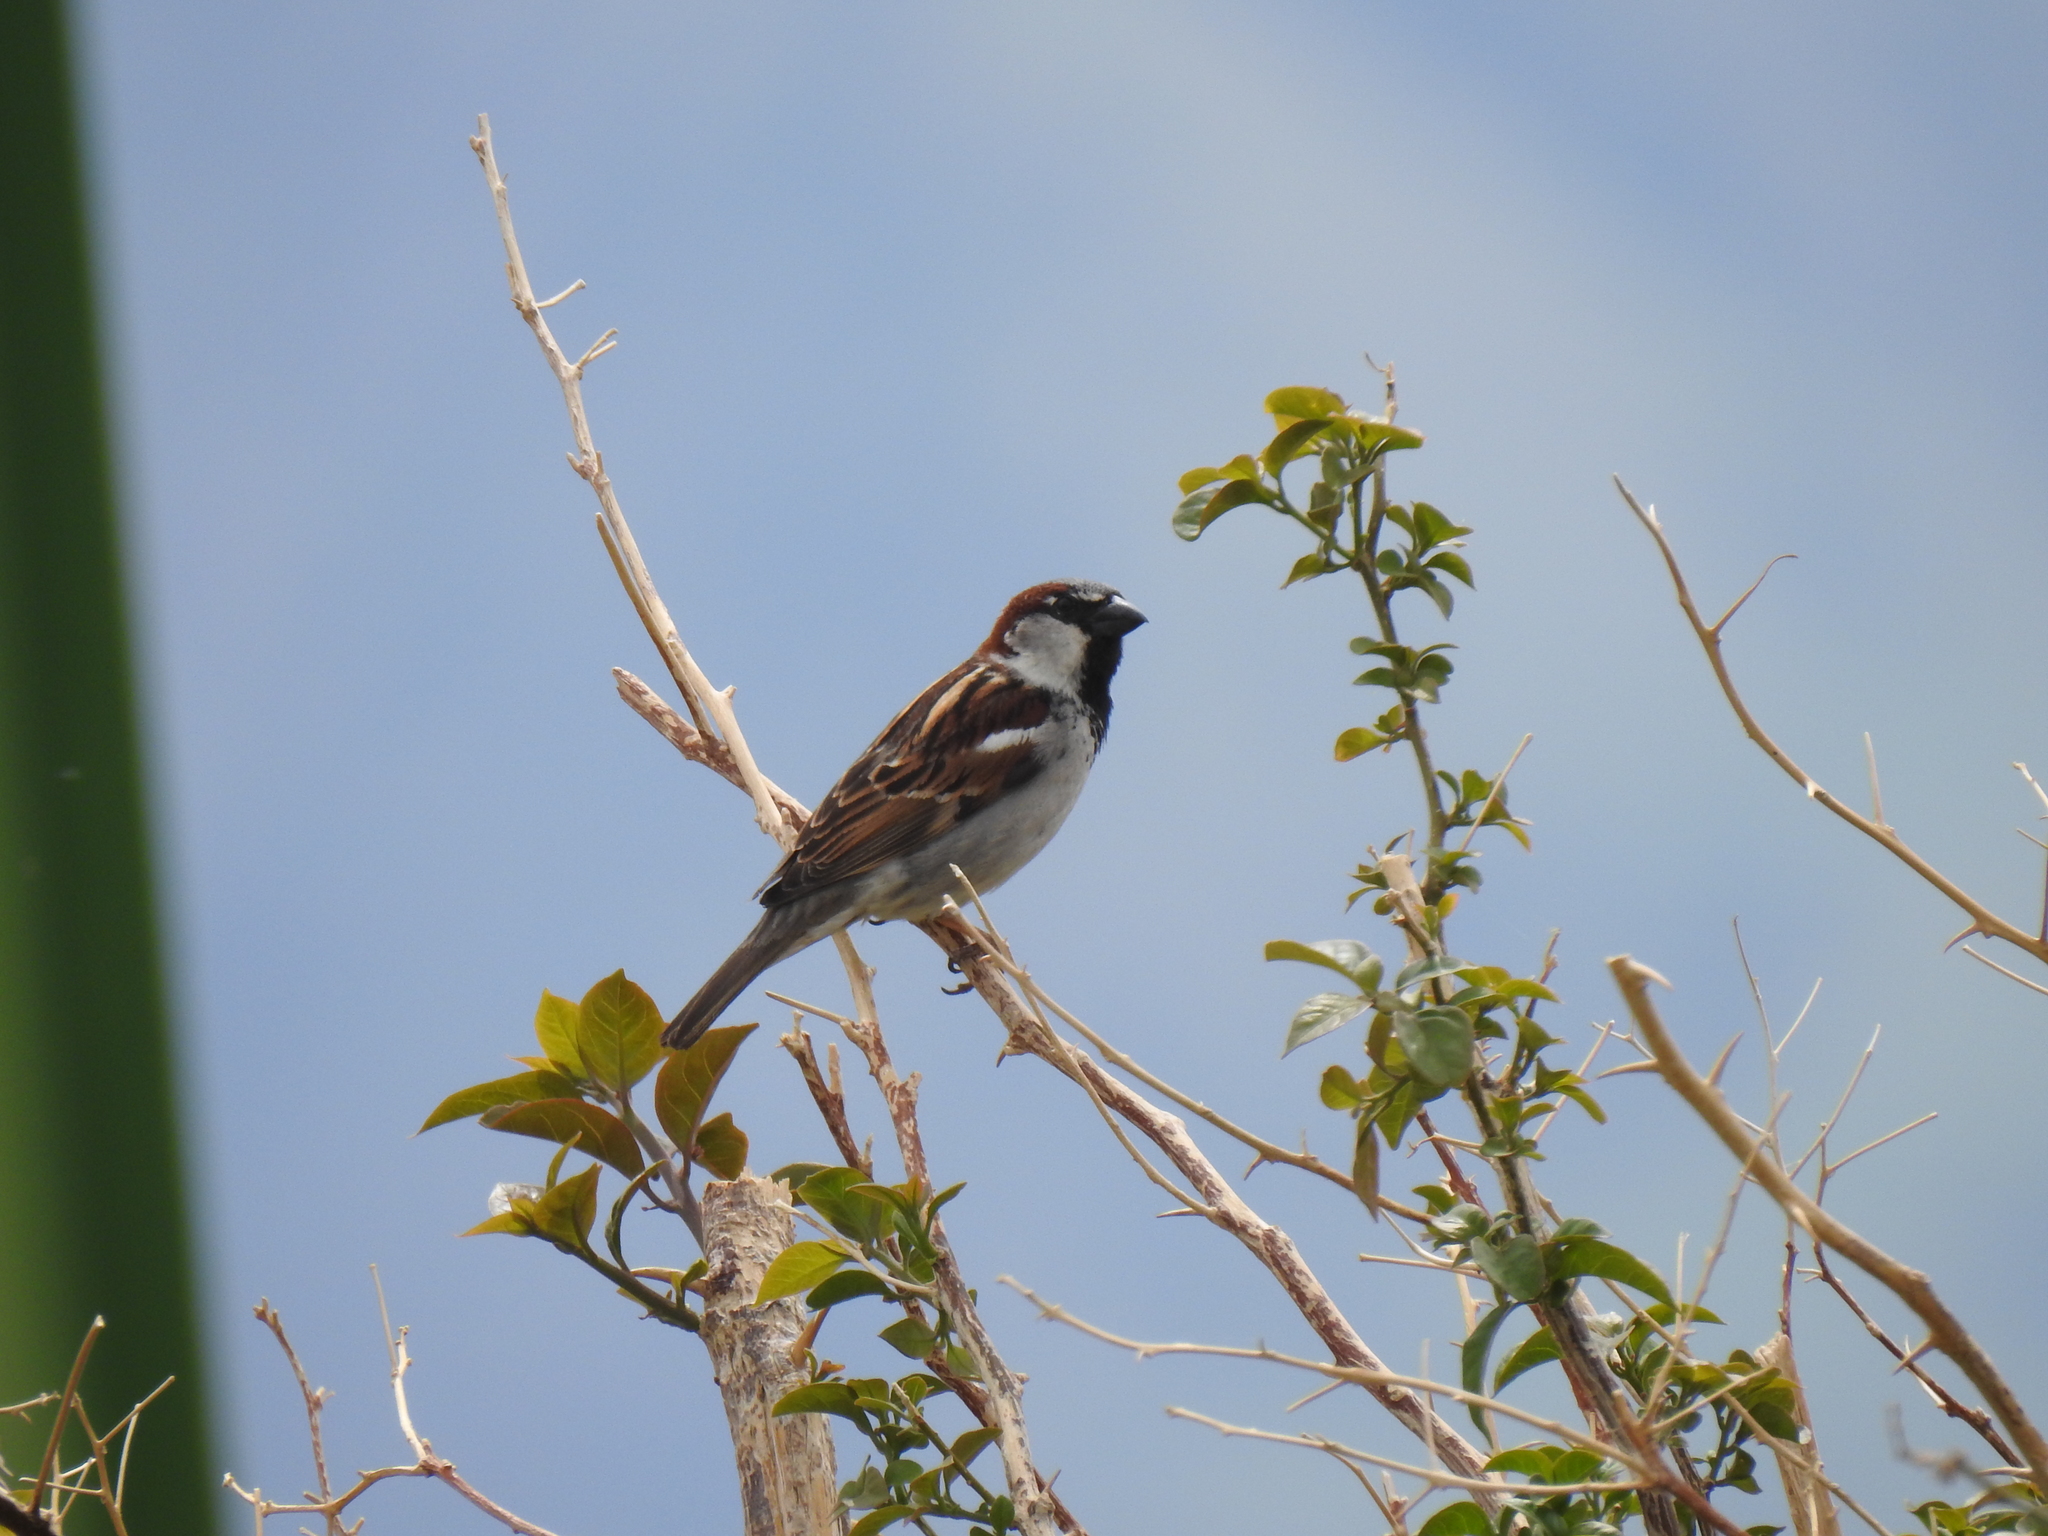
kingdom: Animalia
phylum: Chordata
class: Aves
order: Passeriformes
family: Passeridae
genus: Passer
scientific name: Passer domesticus
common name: House sparrow
